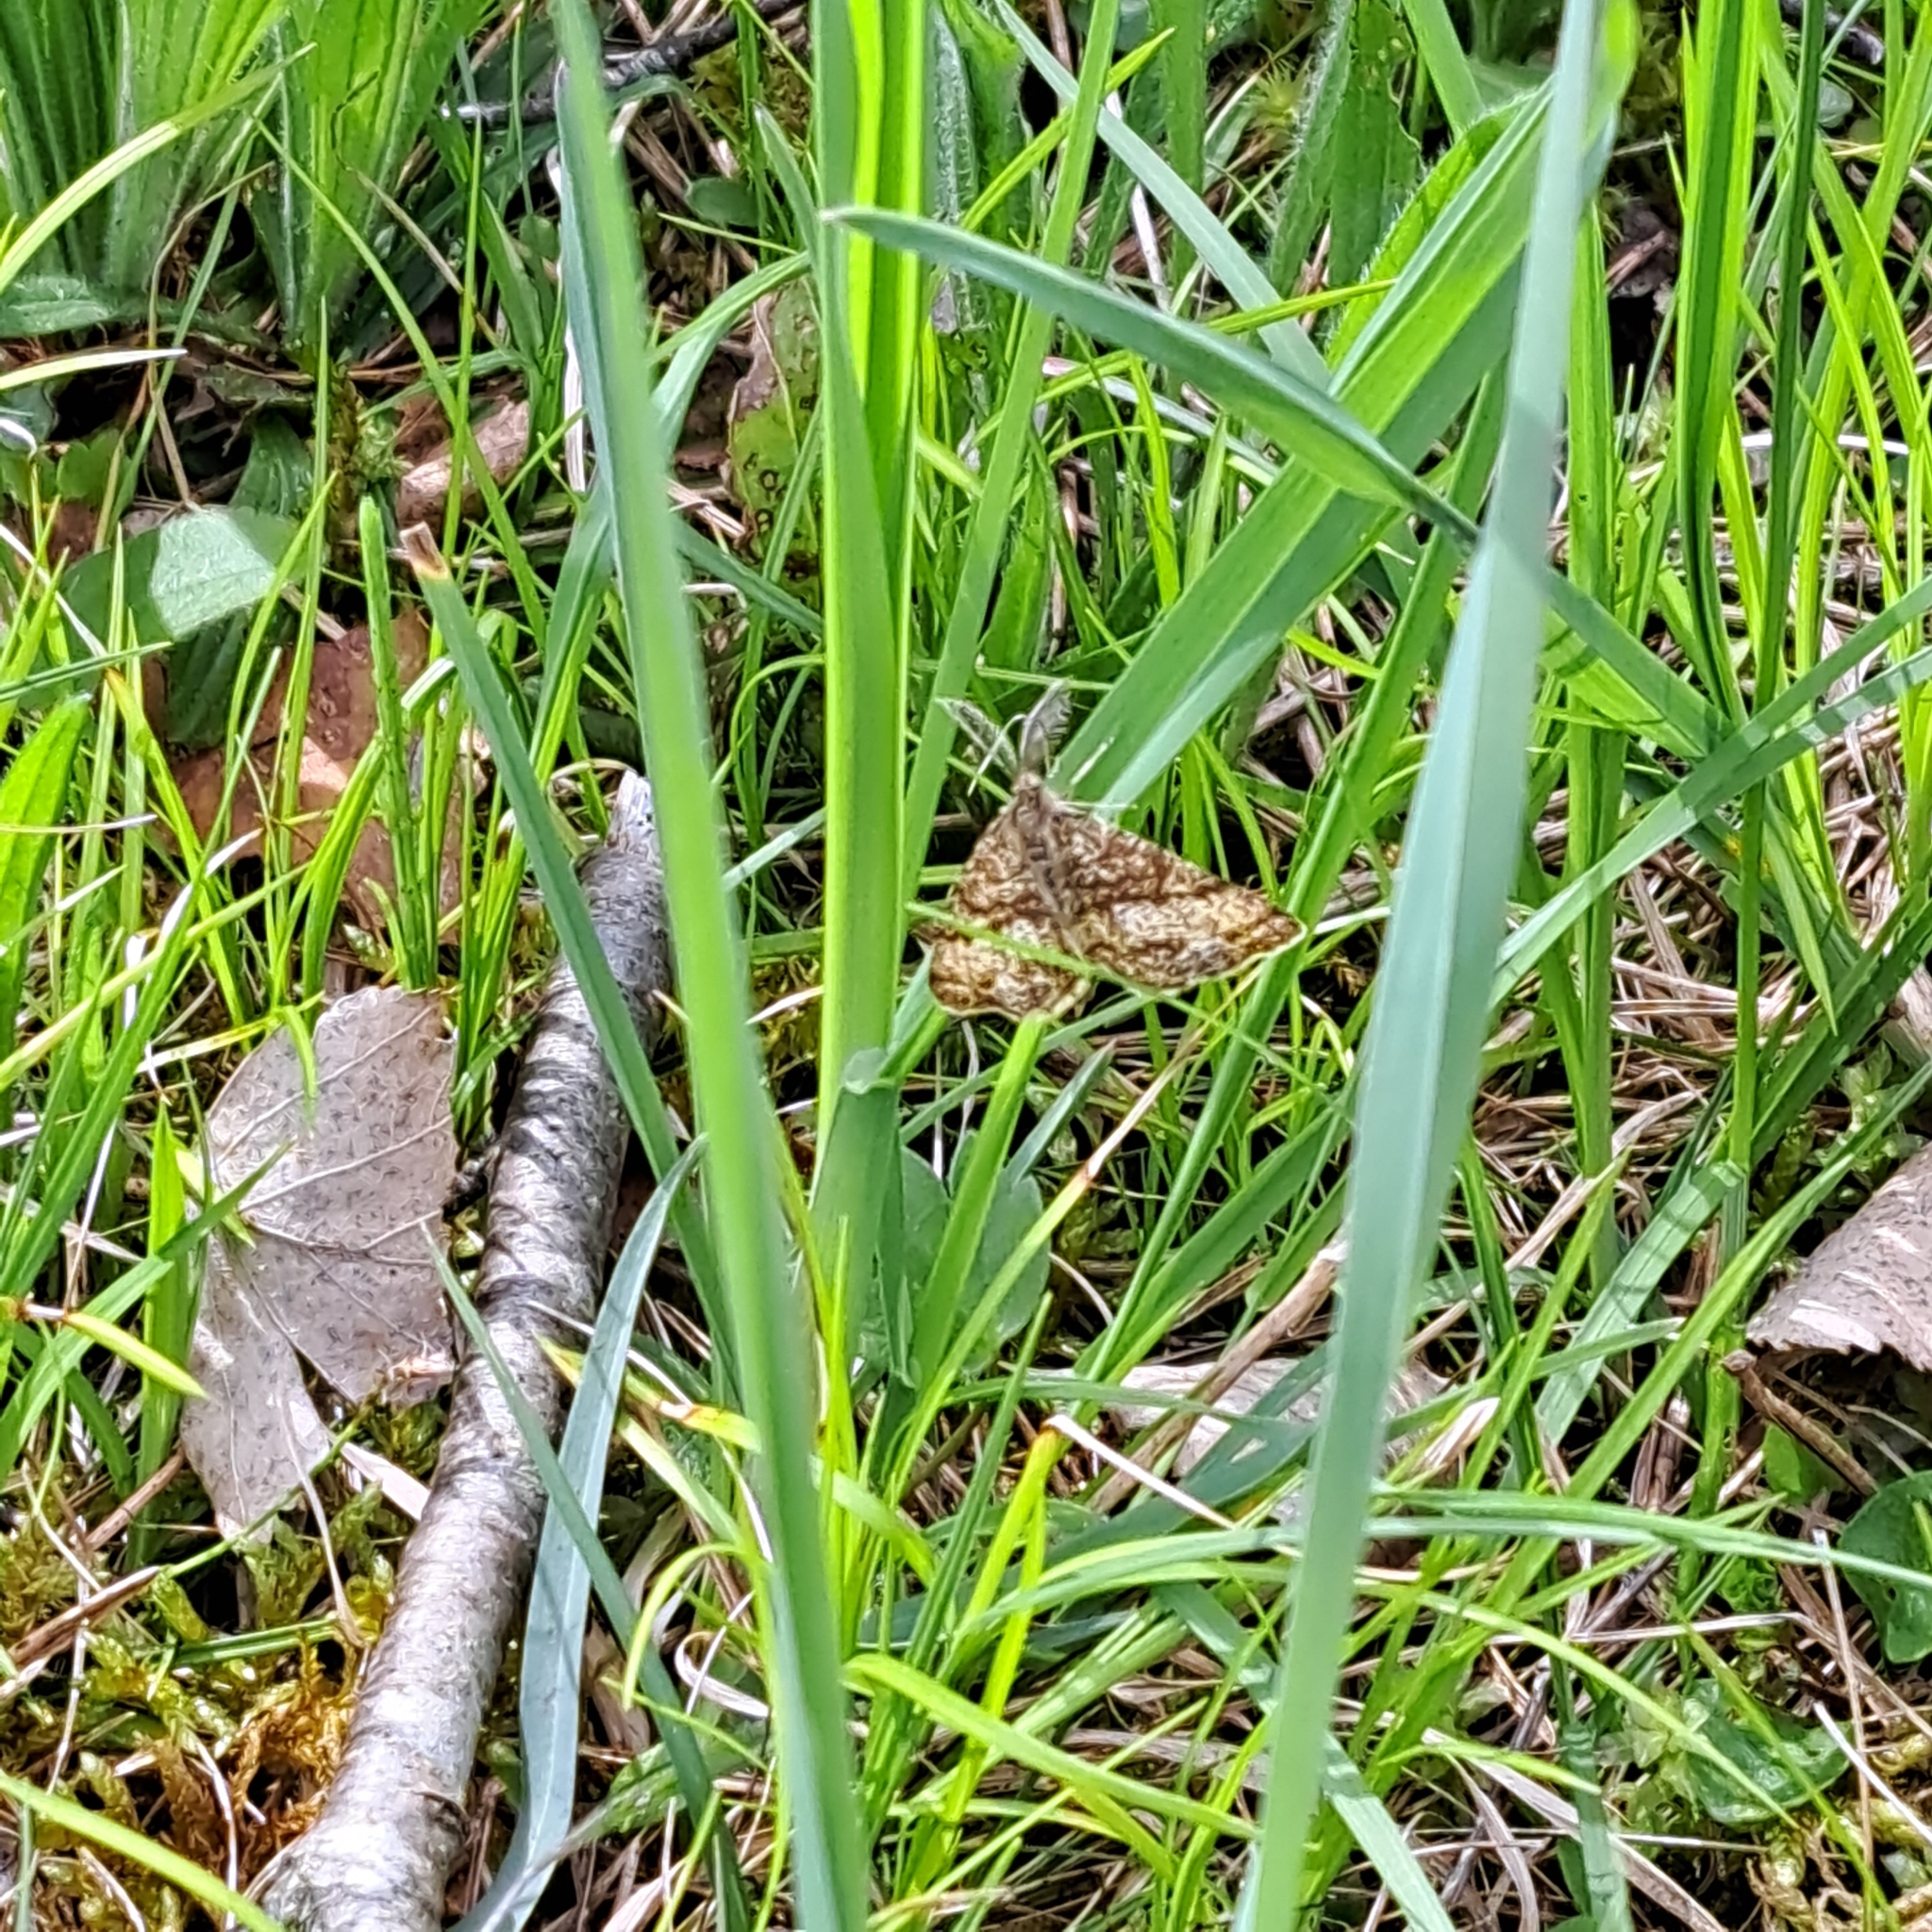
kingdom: Animalia
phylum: Arthropoda
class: Insecta
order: Lepidoptera
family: Geometridae
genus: Ematurga
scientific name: Ematurga atomaria
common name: Common heath
